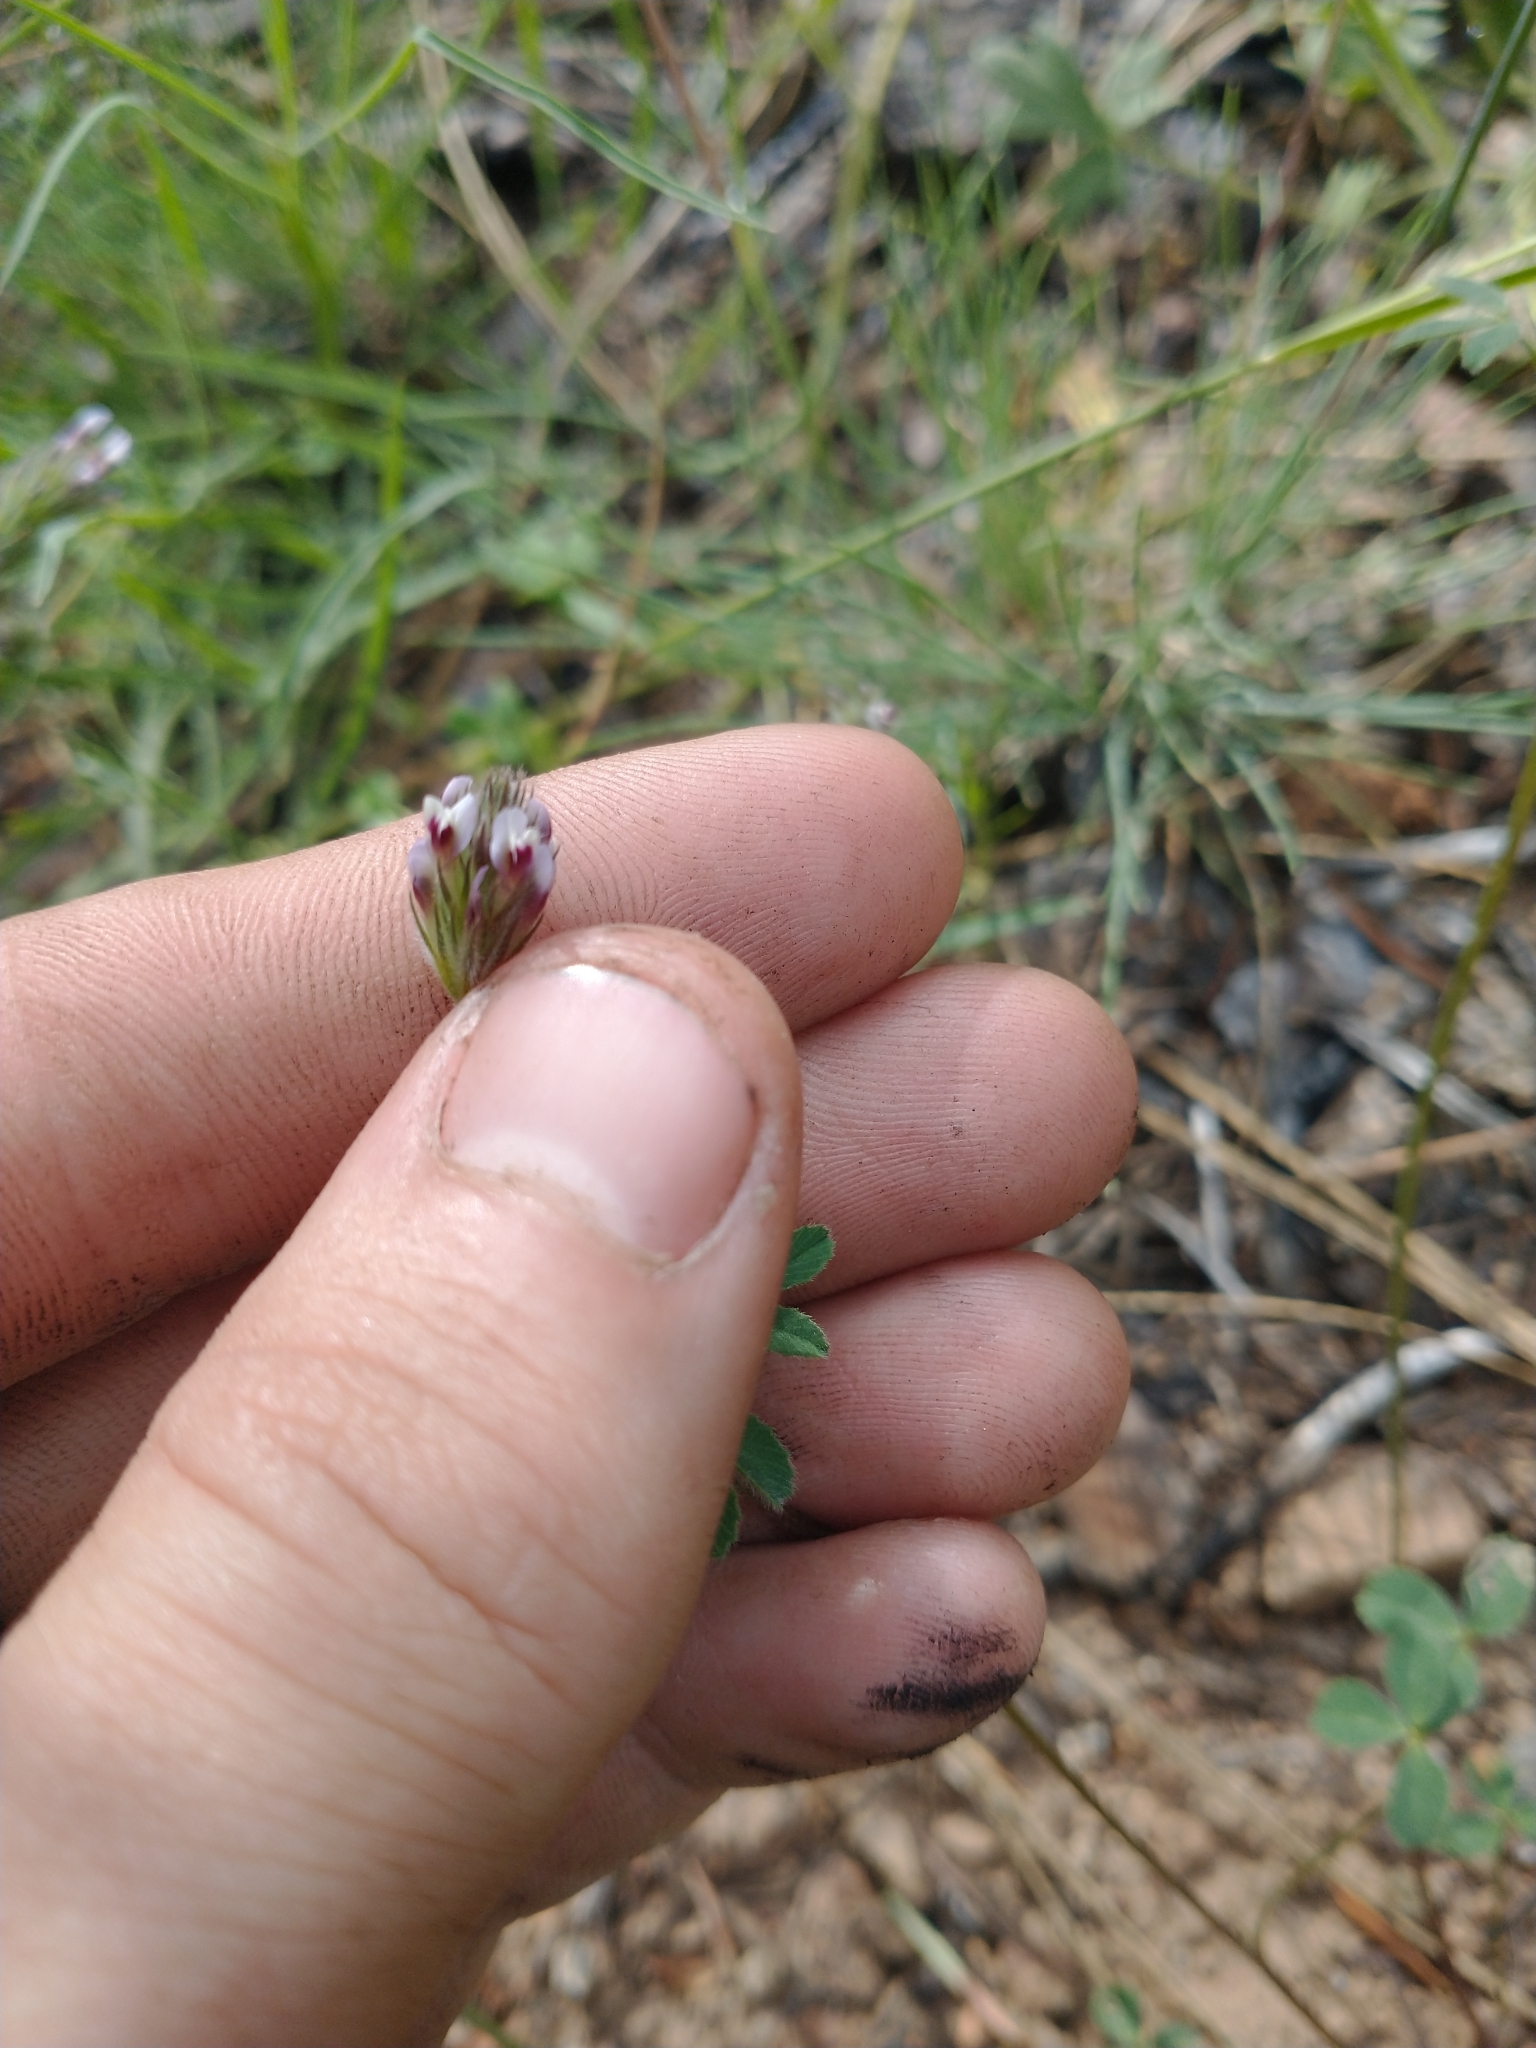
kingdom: Plantae
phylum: Tracheophyta
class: Magnoliopsida
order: Fabales
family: Fabaceae
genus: Trifolium
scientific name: Trifolium dichotomum
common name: Branched indian clover
